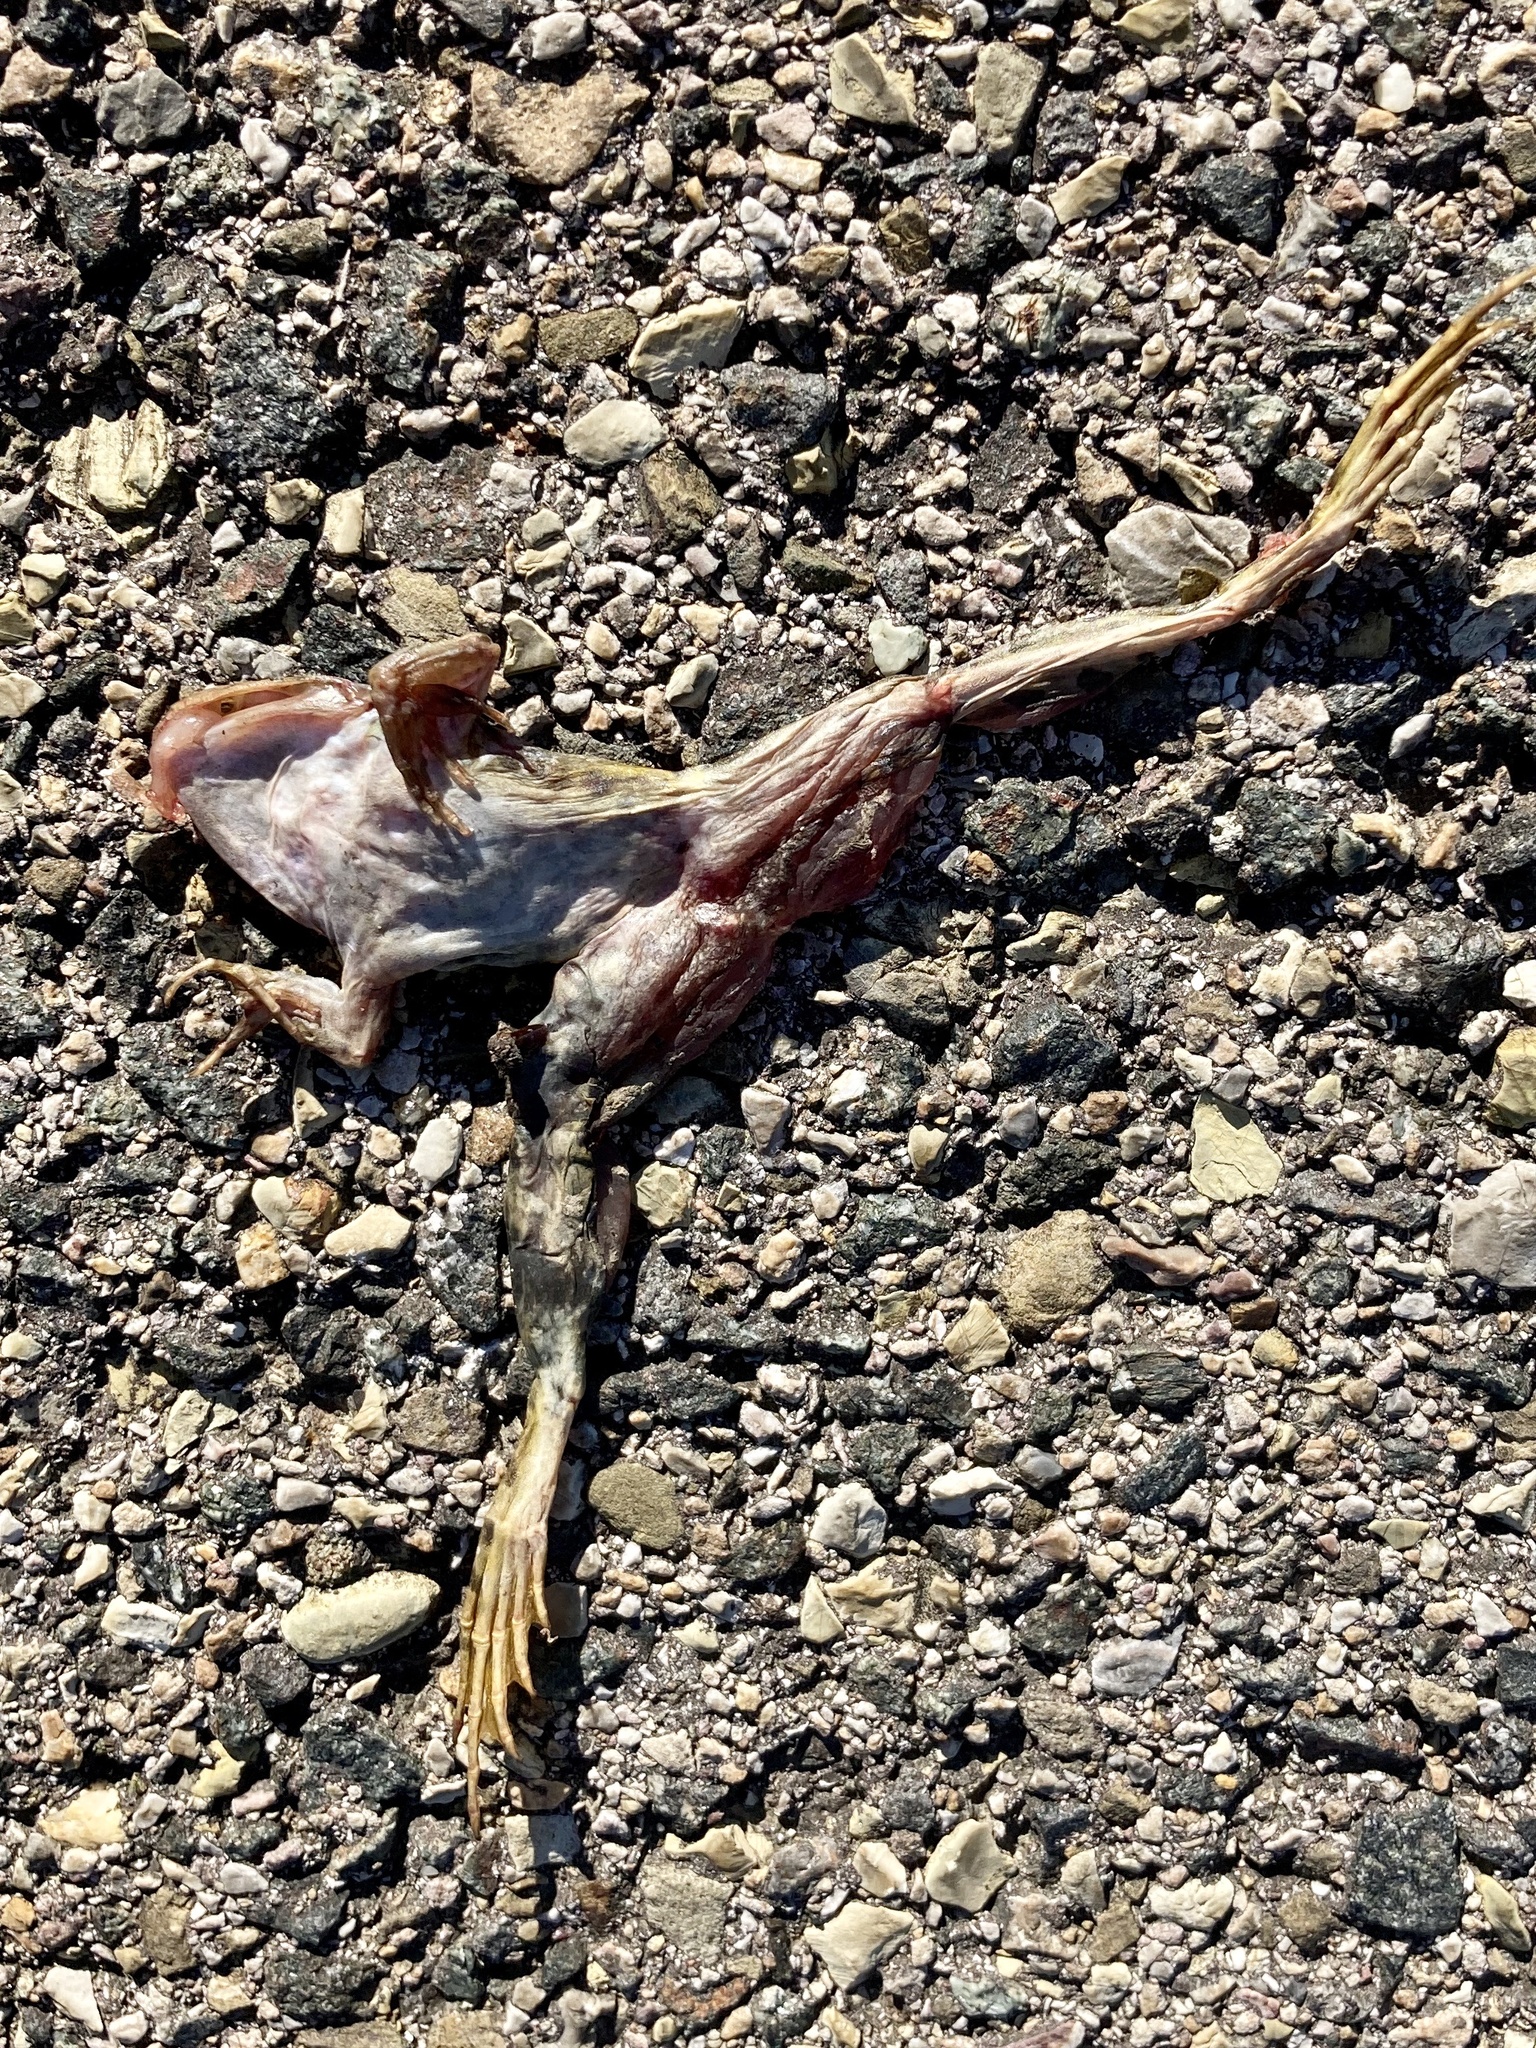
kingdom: Animalia
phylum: Chordata
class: Amphibia
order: Anura
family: Ranidae
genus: Pelophylax
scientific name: Pelophylax
